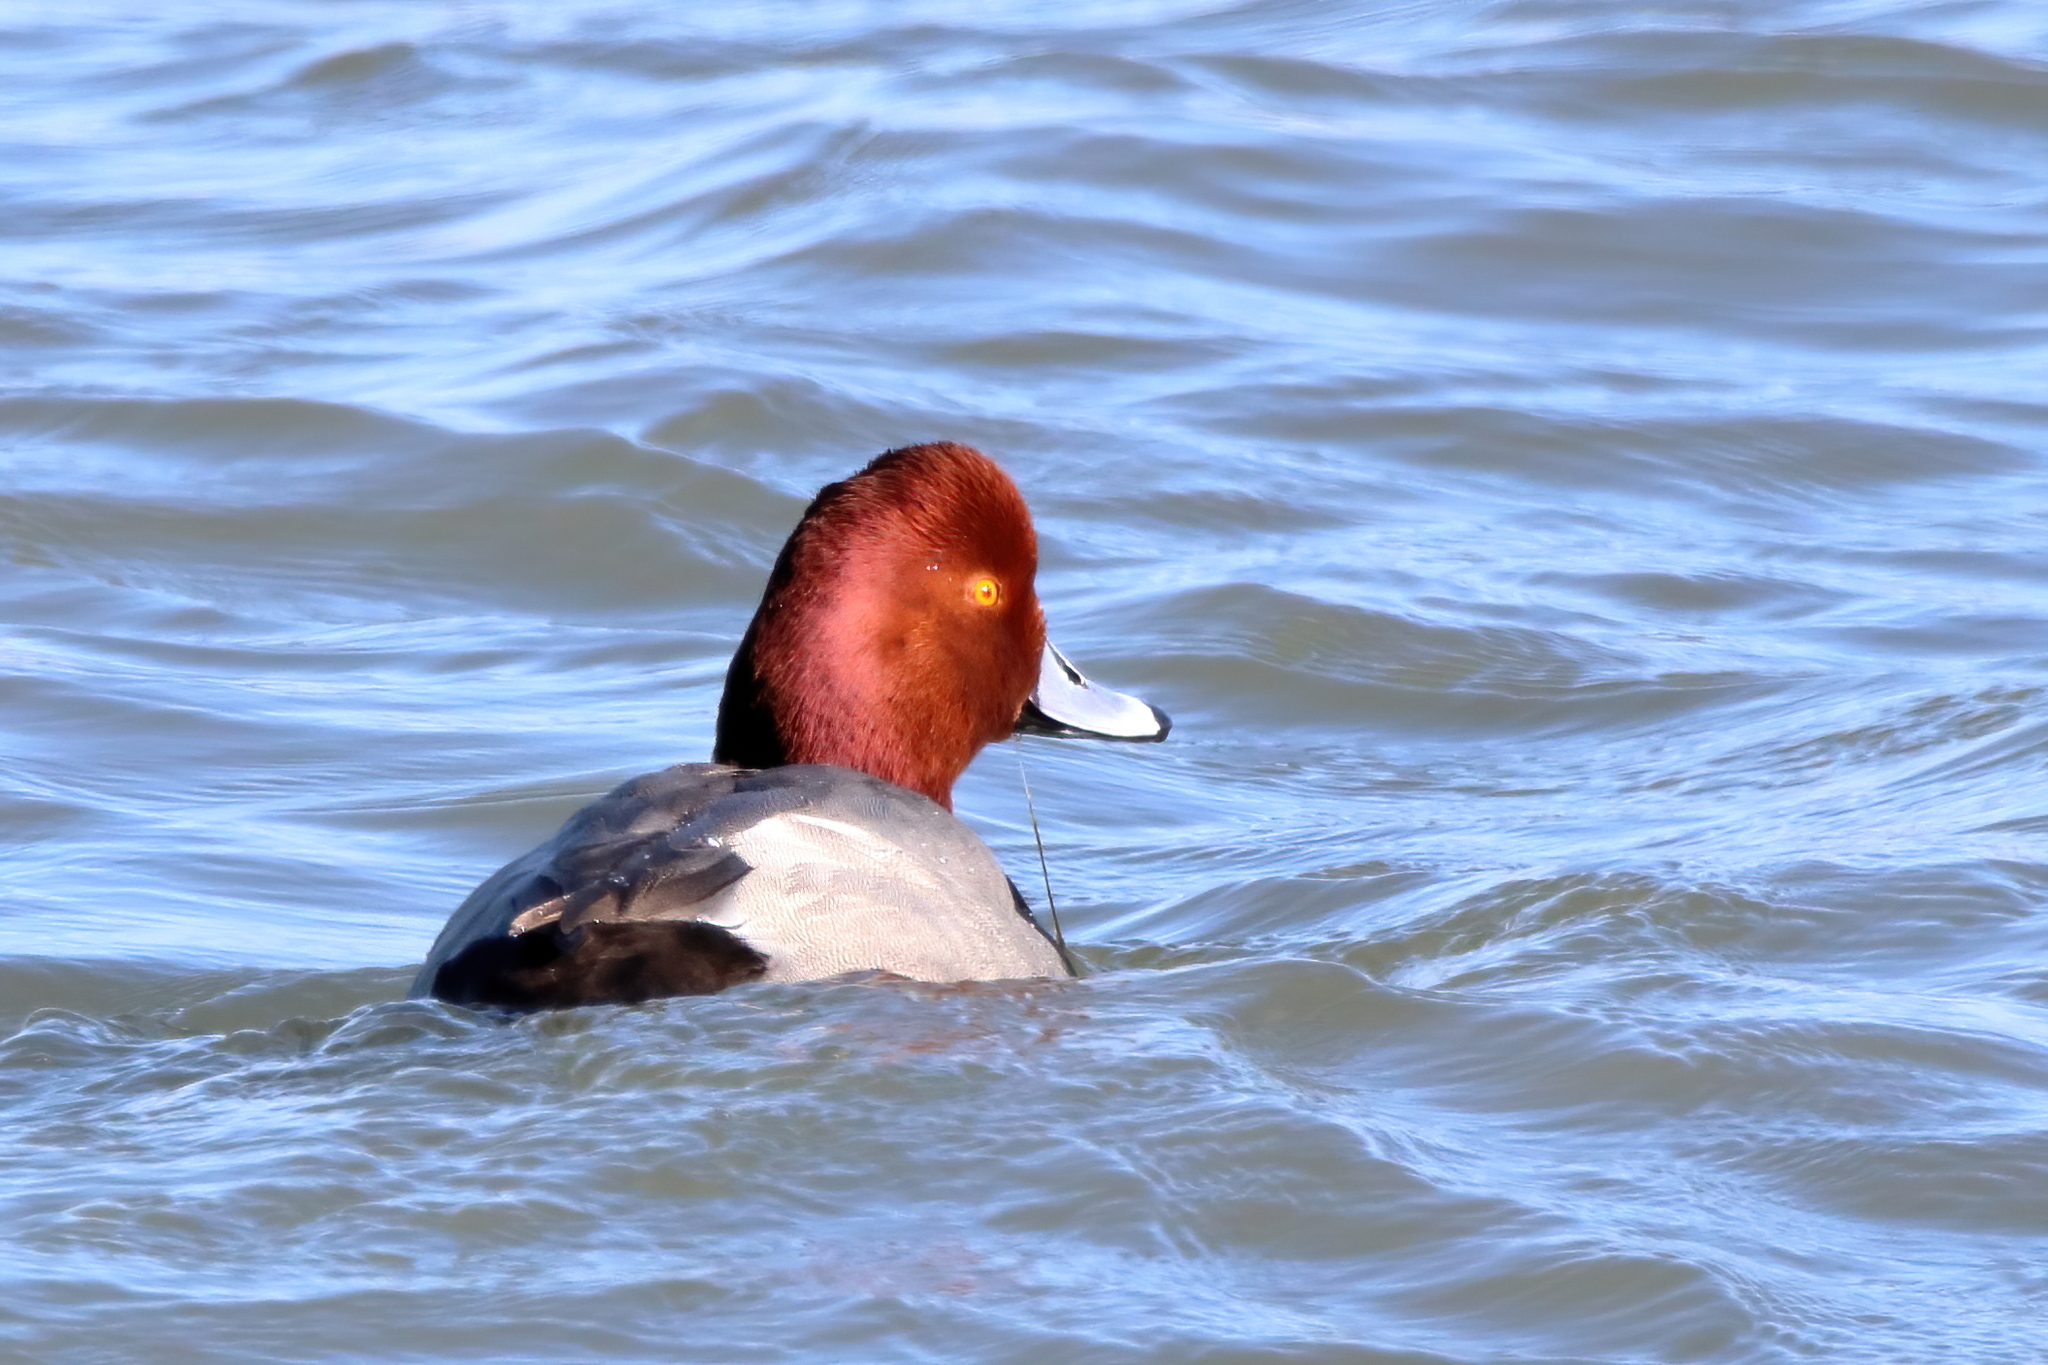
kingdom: Animalia
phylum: Chordata
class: Aves
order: Anseriformes
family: Anatidae
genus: Aythya
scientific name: Aythya americana
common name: Redhead
